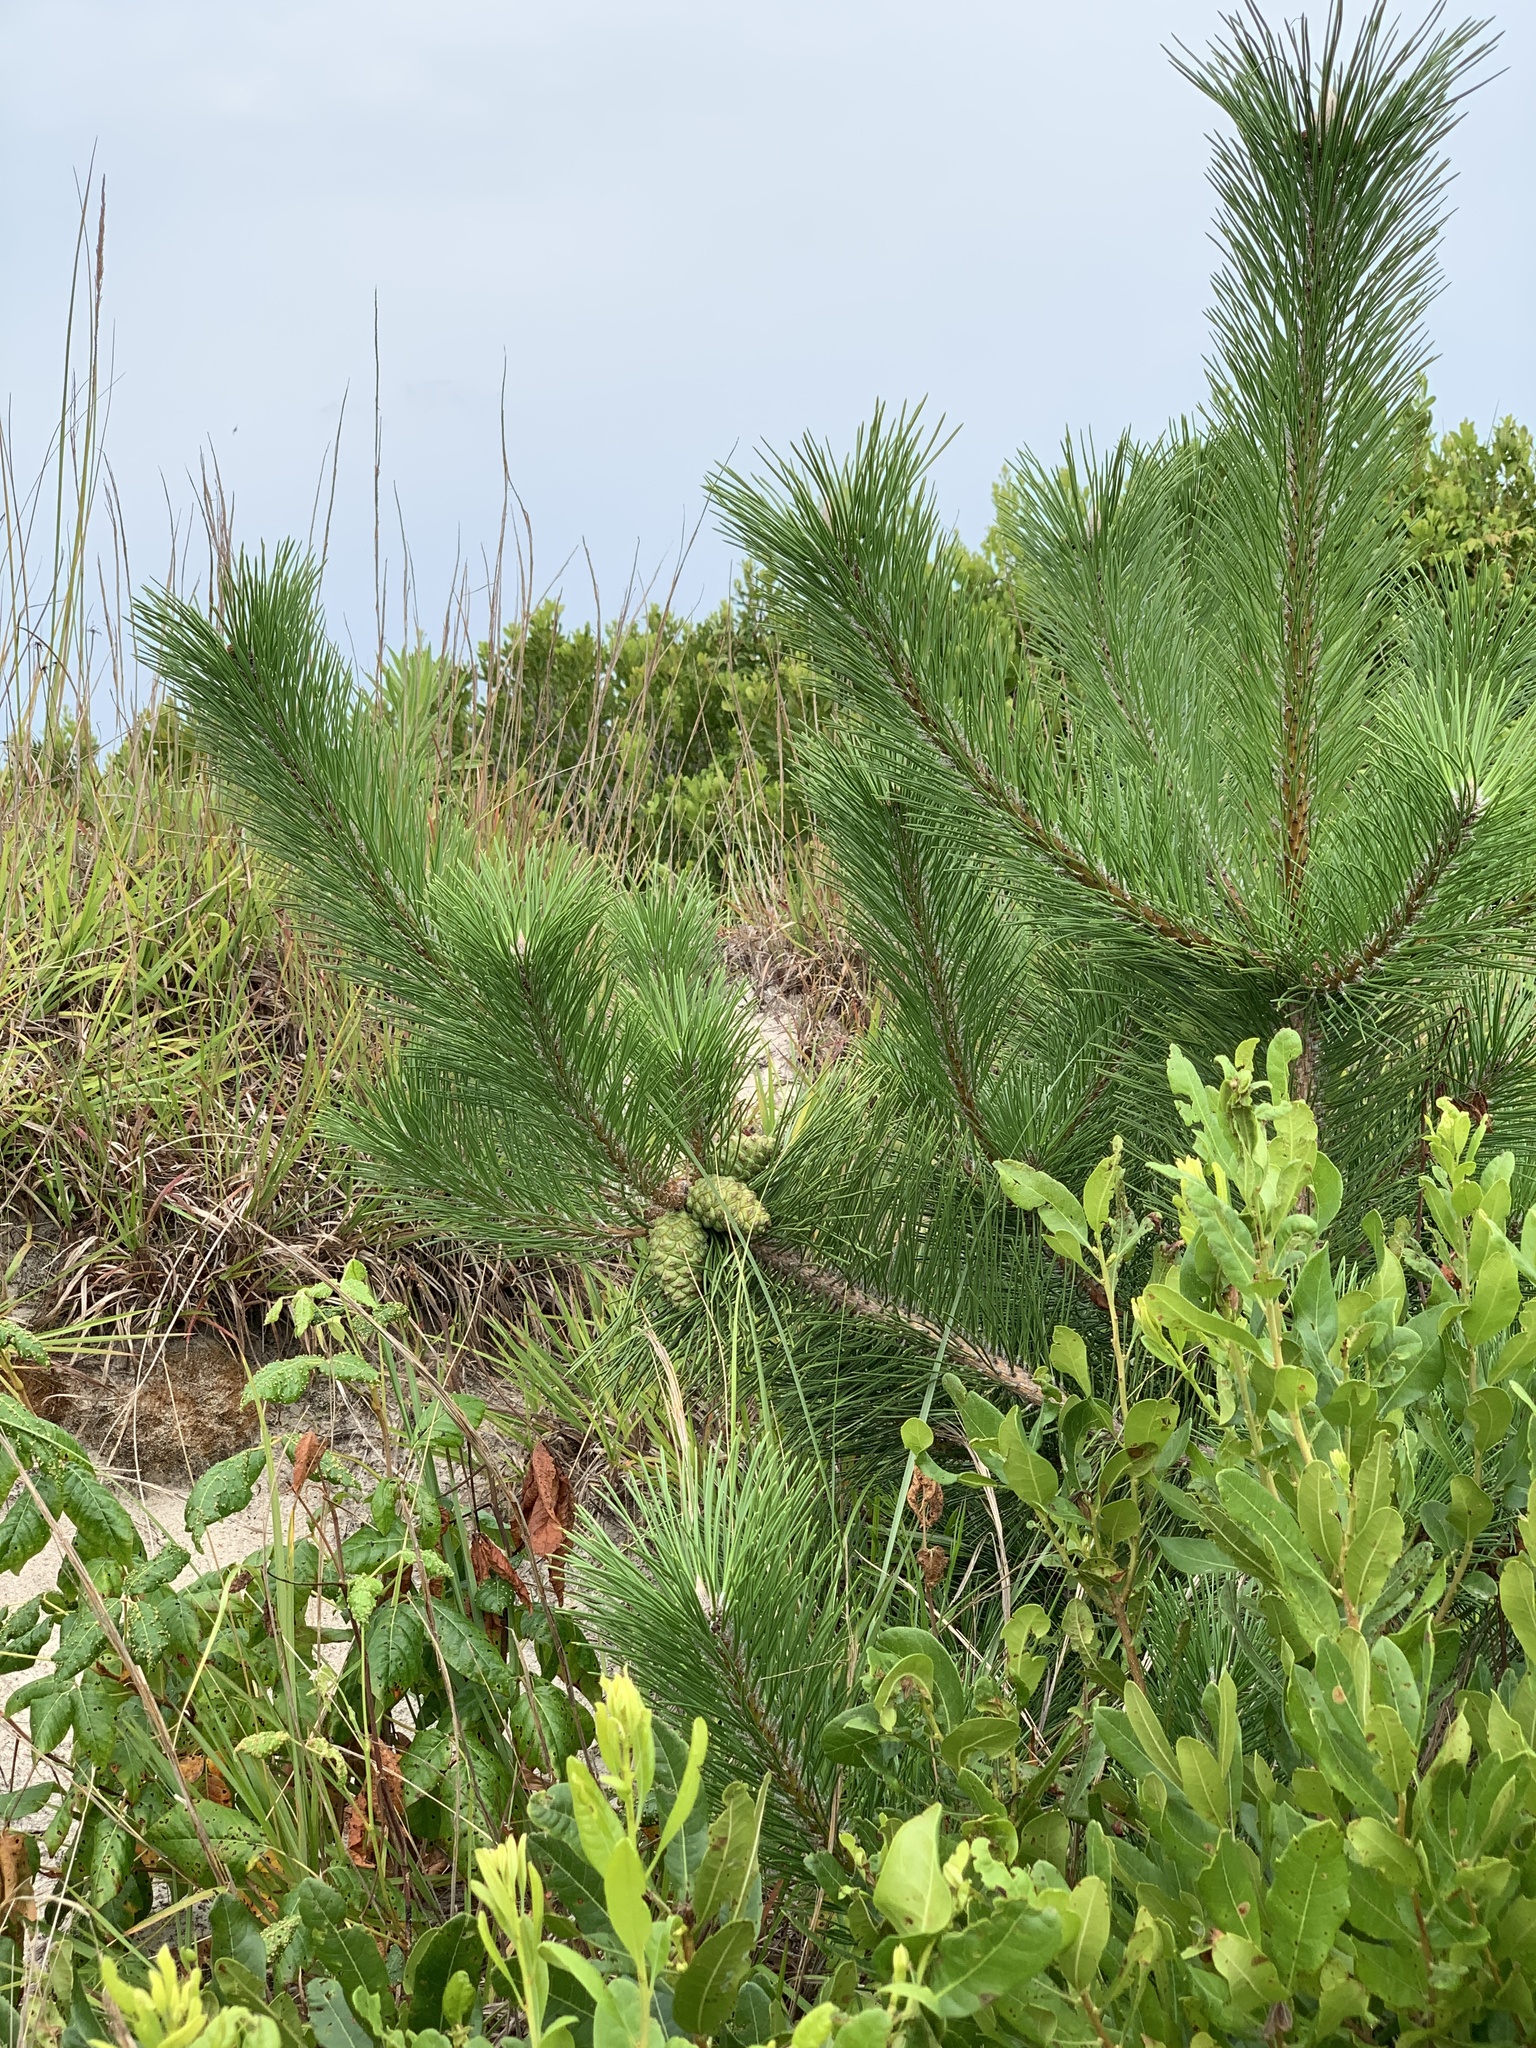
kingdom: Plantae
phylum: Tracheophyta
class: Pinopsida
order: Pinales
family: Pinaceae
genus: Pinus
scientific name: Pinus thunbergii
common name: Japanese black pine
